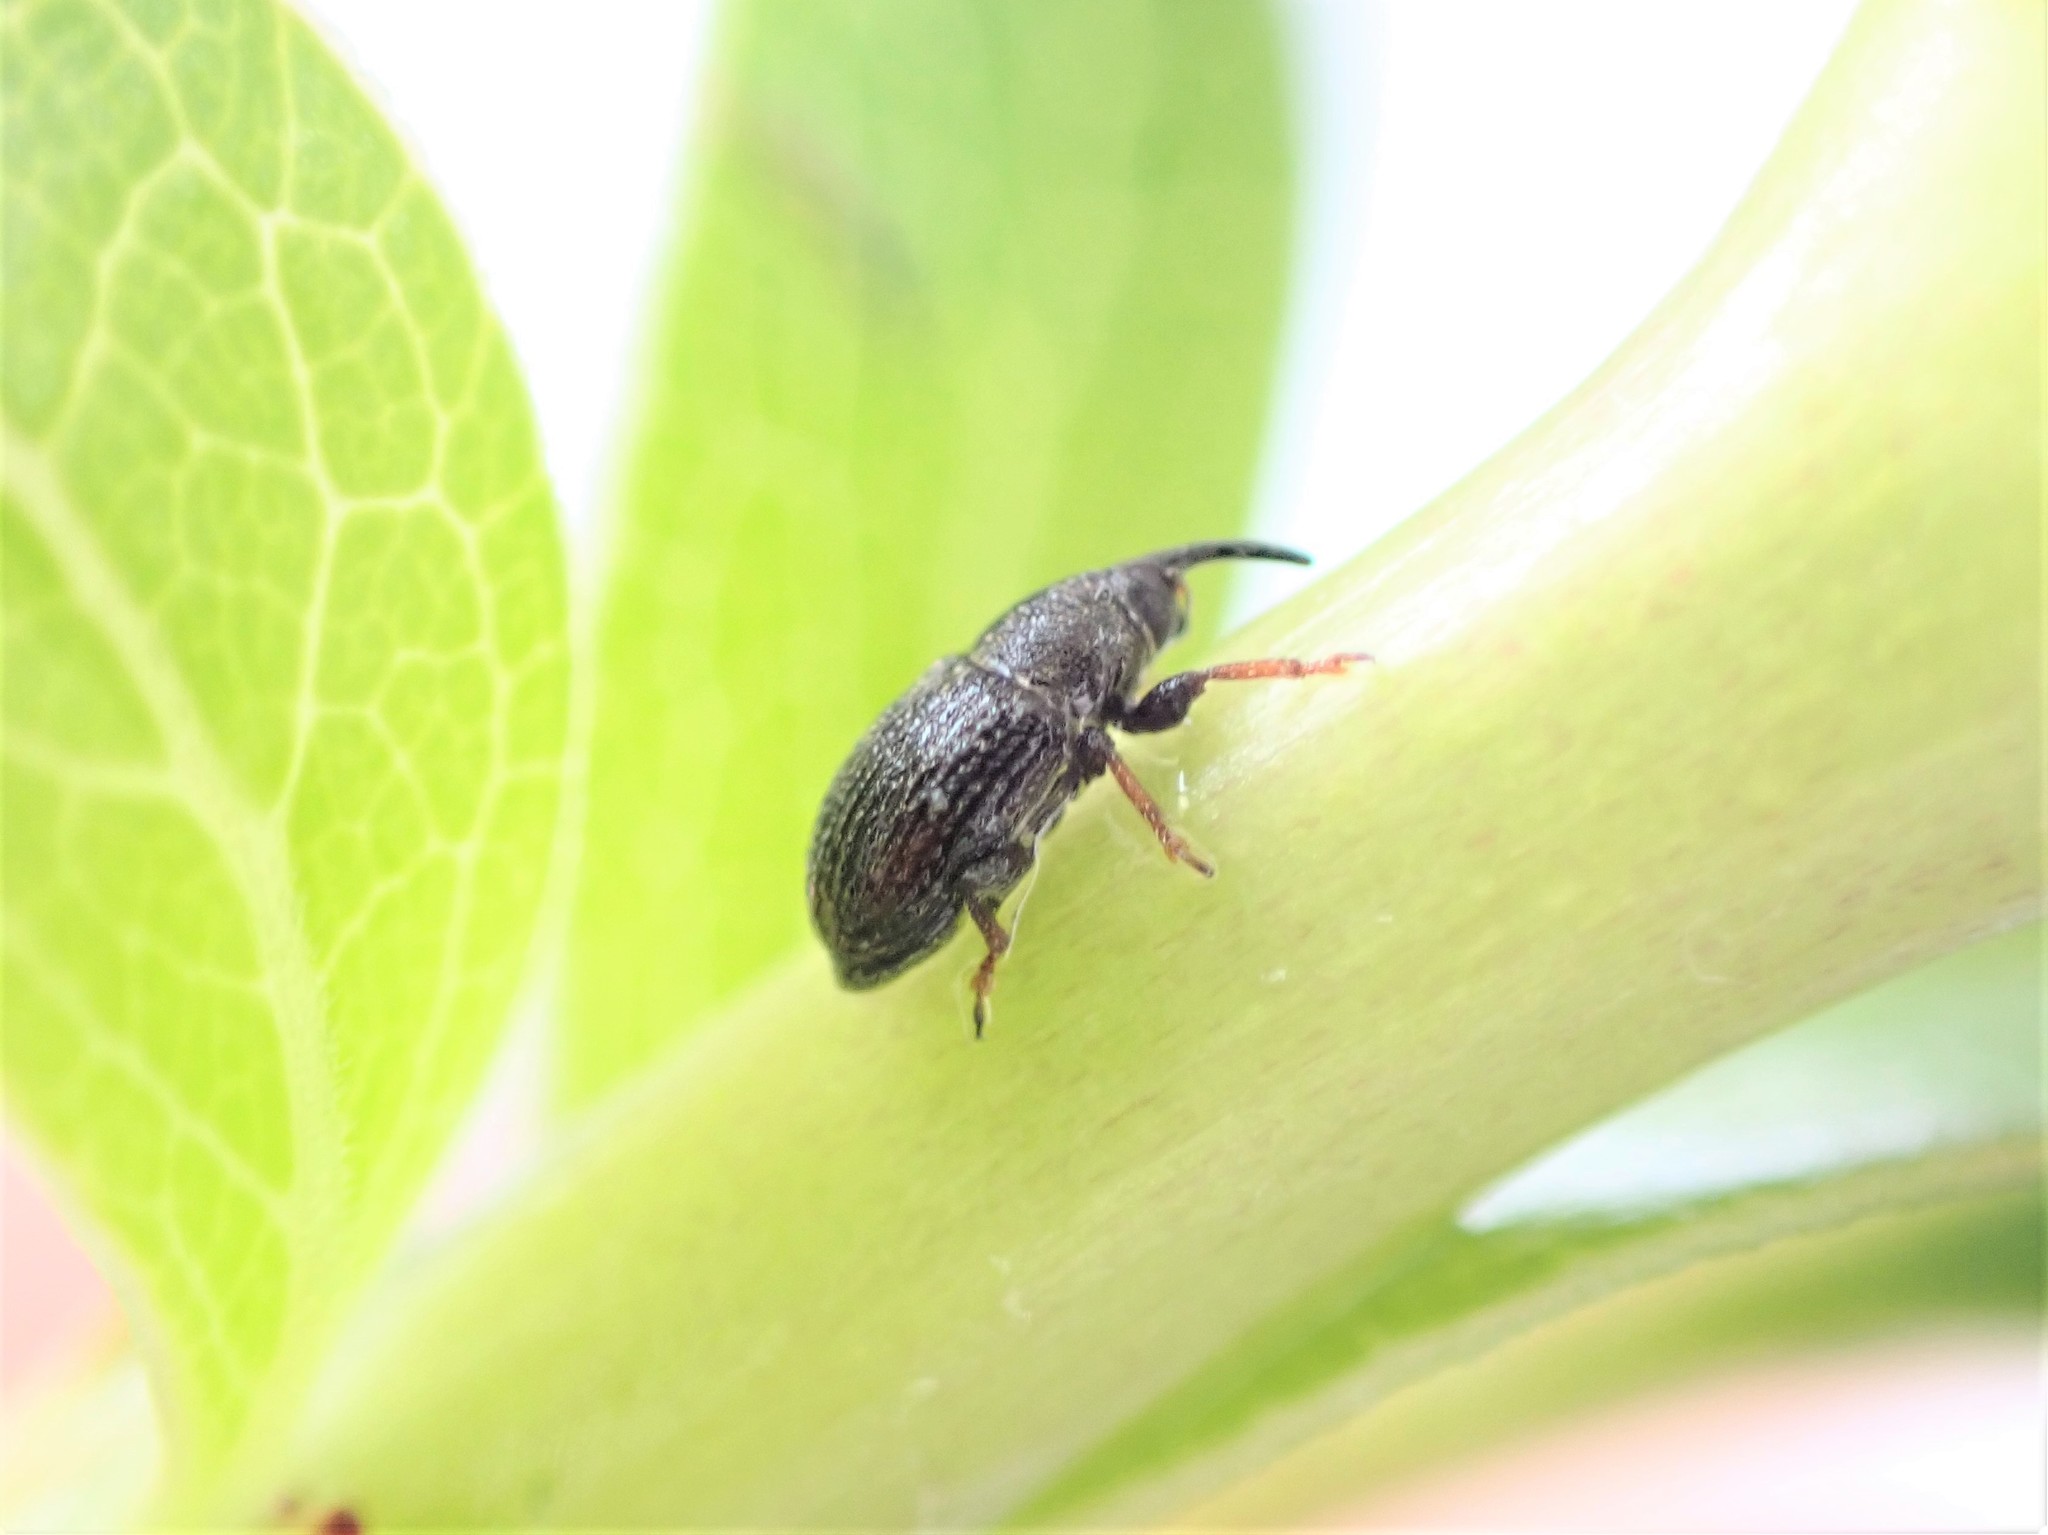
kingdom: Animalia
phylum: Arthropoda
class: Insecta
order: Coleoptera
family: Curculionidae
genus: Mecinus
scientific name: Mecinus pascuorum
